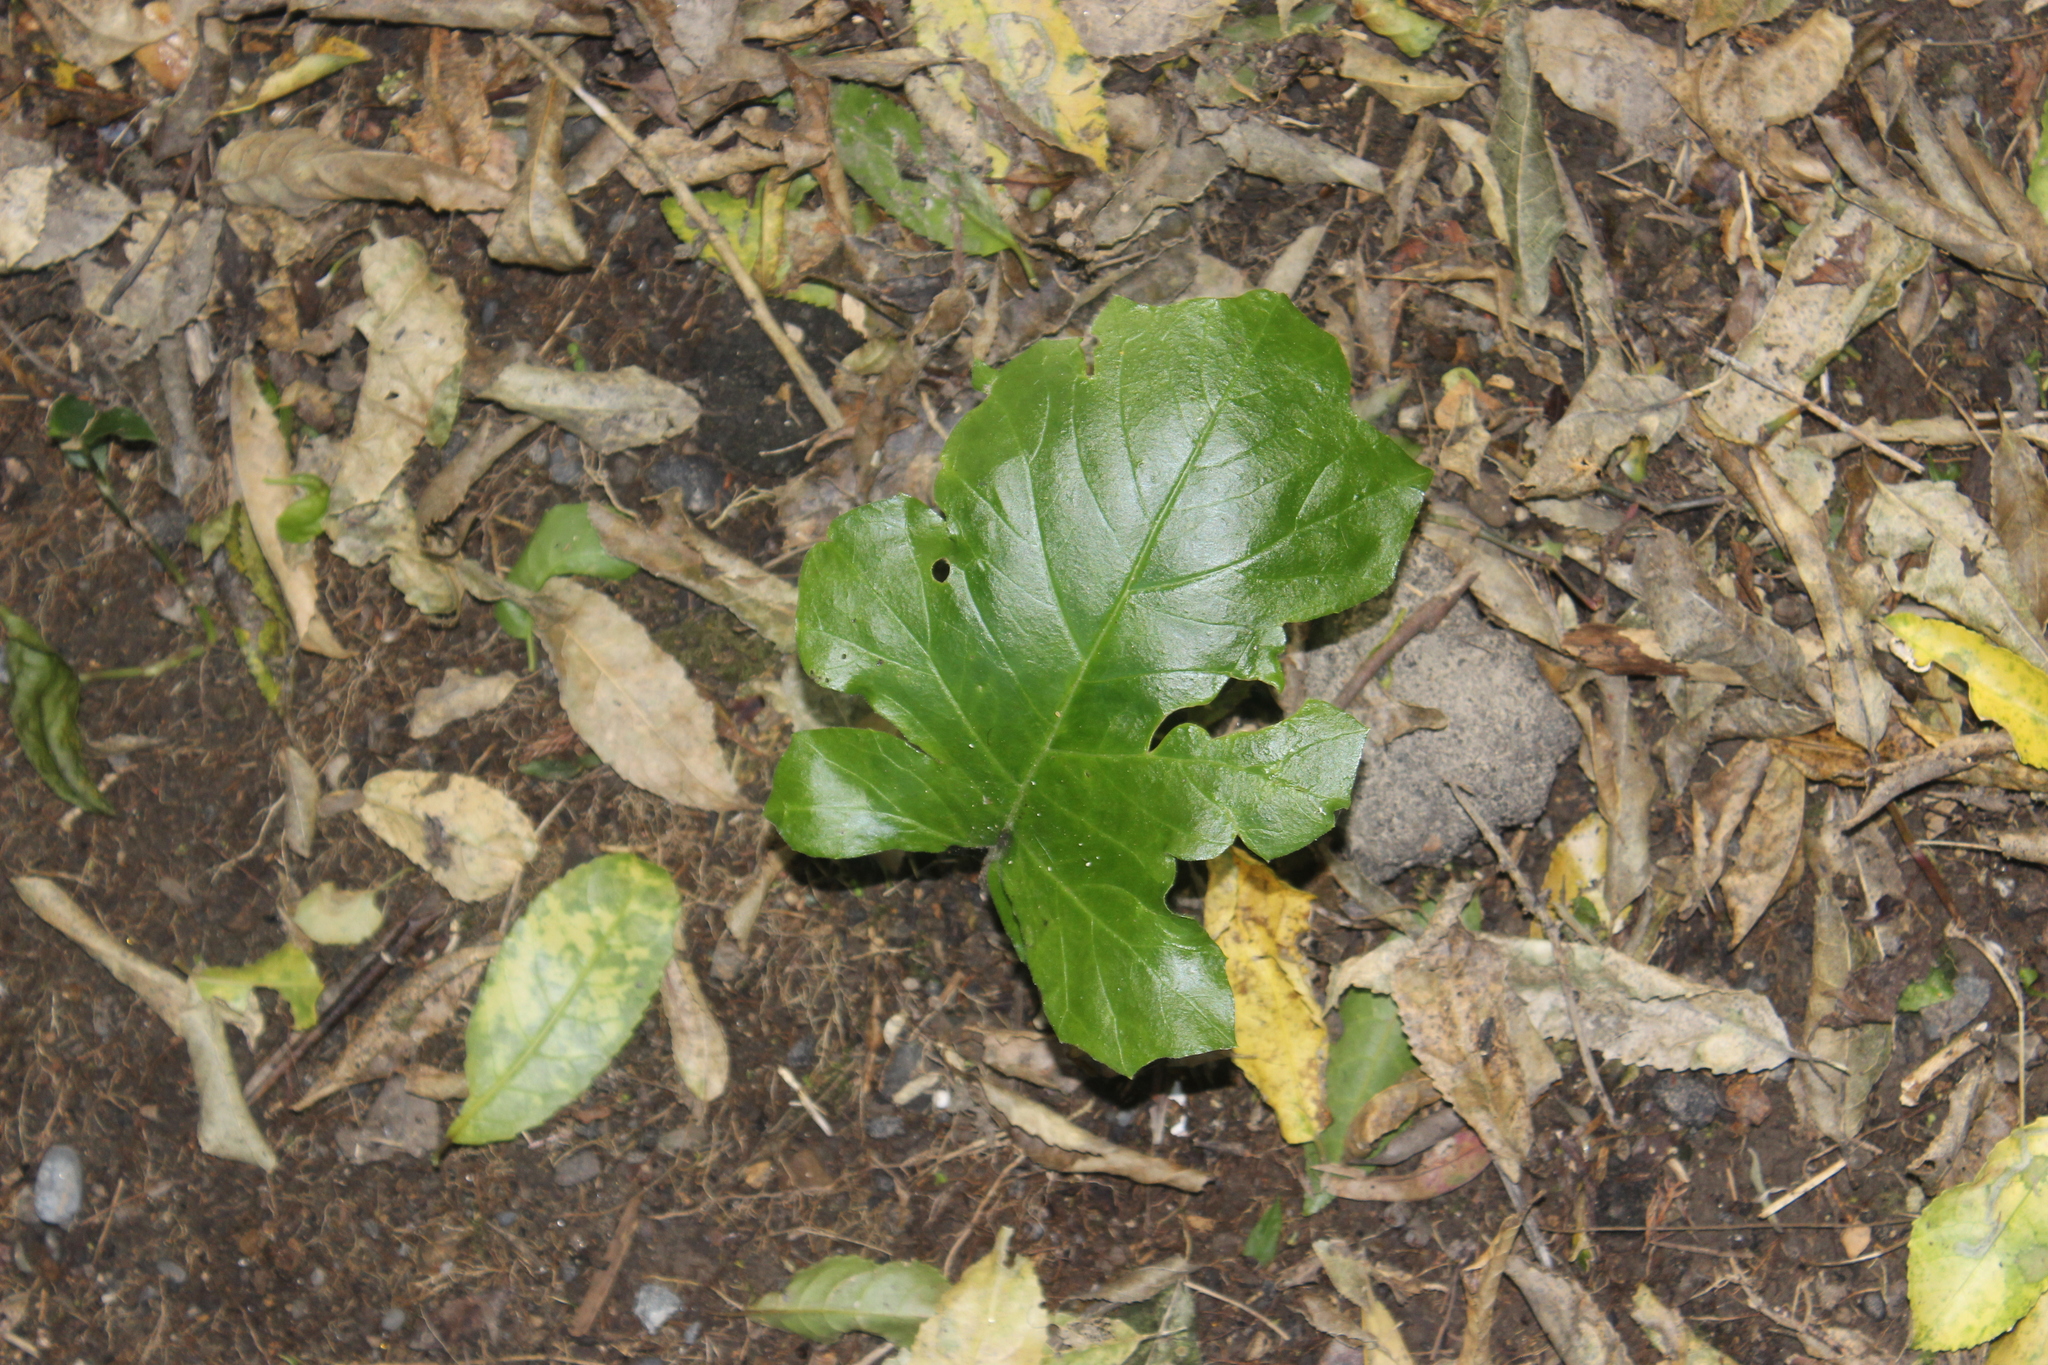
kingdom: Plantae
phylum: Tracheophyta
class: Magnoliopsida
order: Lamiales
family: Acanthaceae
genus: Acanthus
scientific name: Acanthus mollis
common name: Bear's-breech
